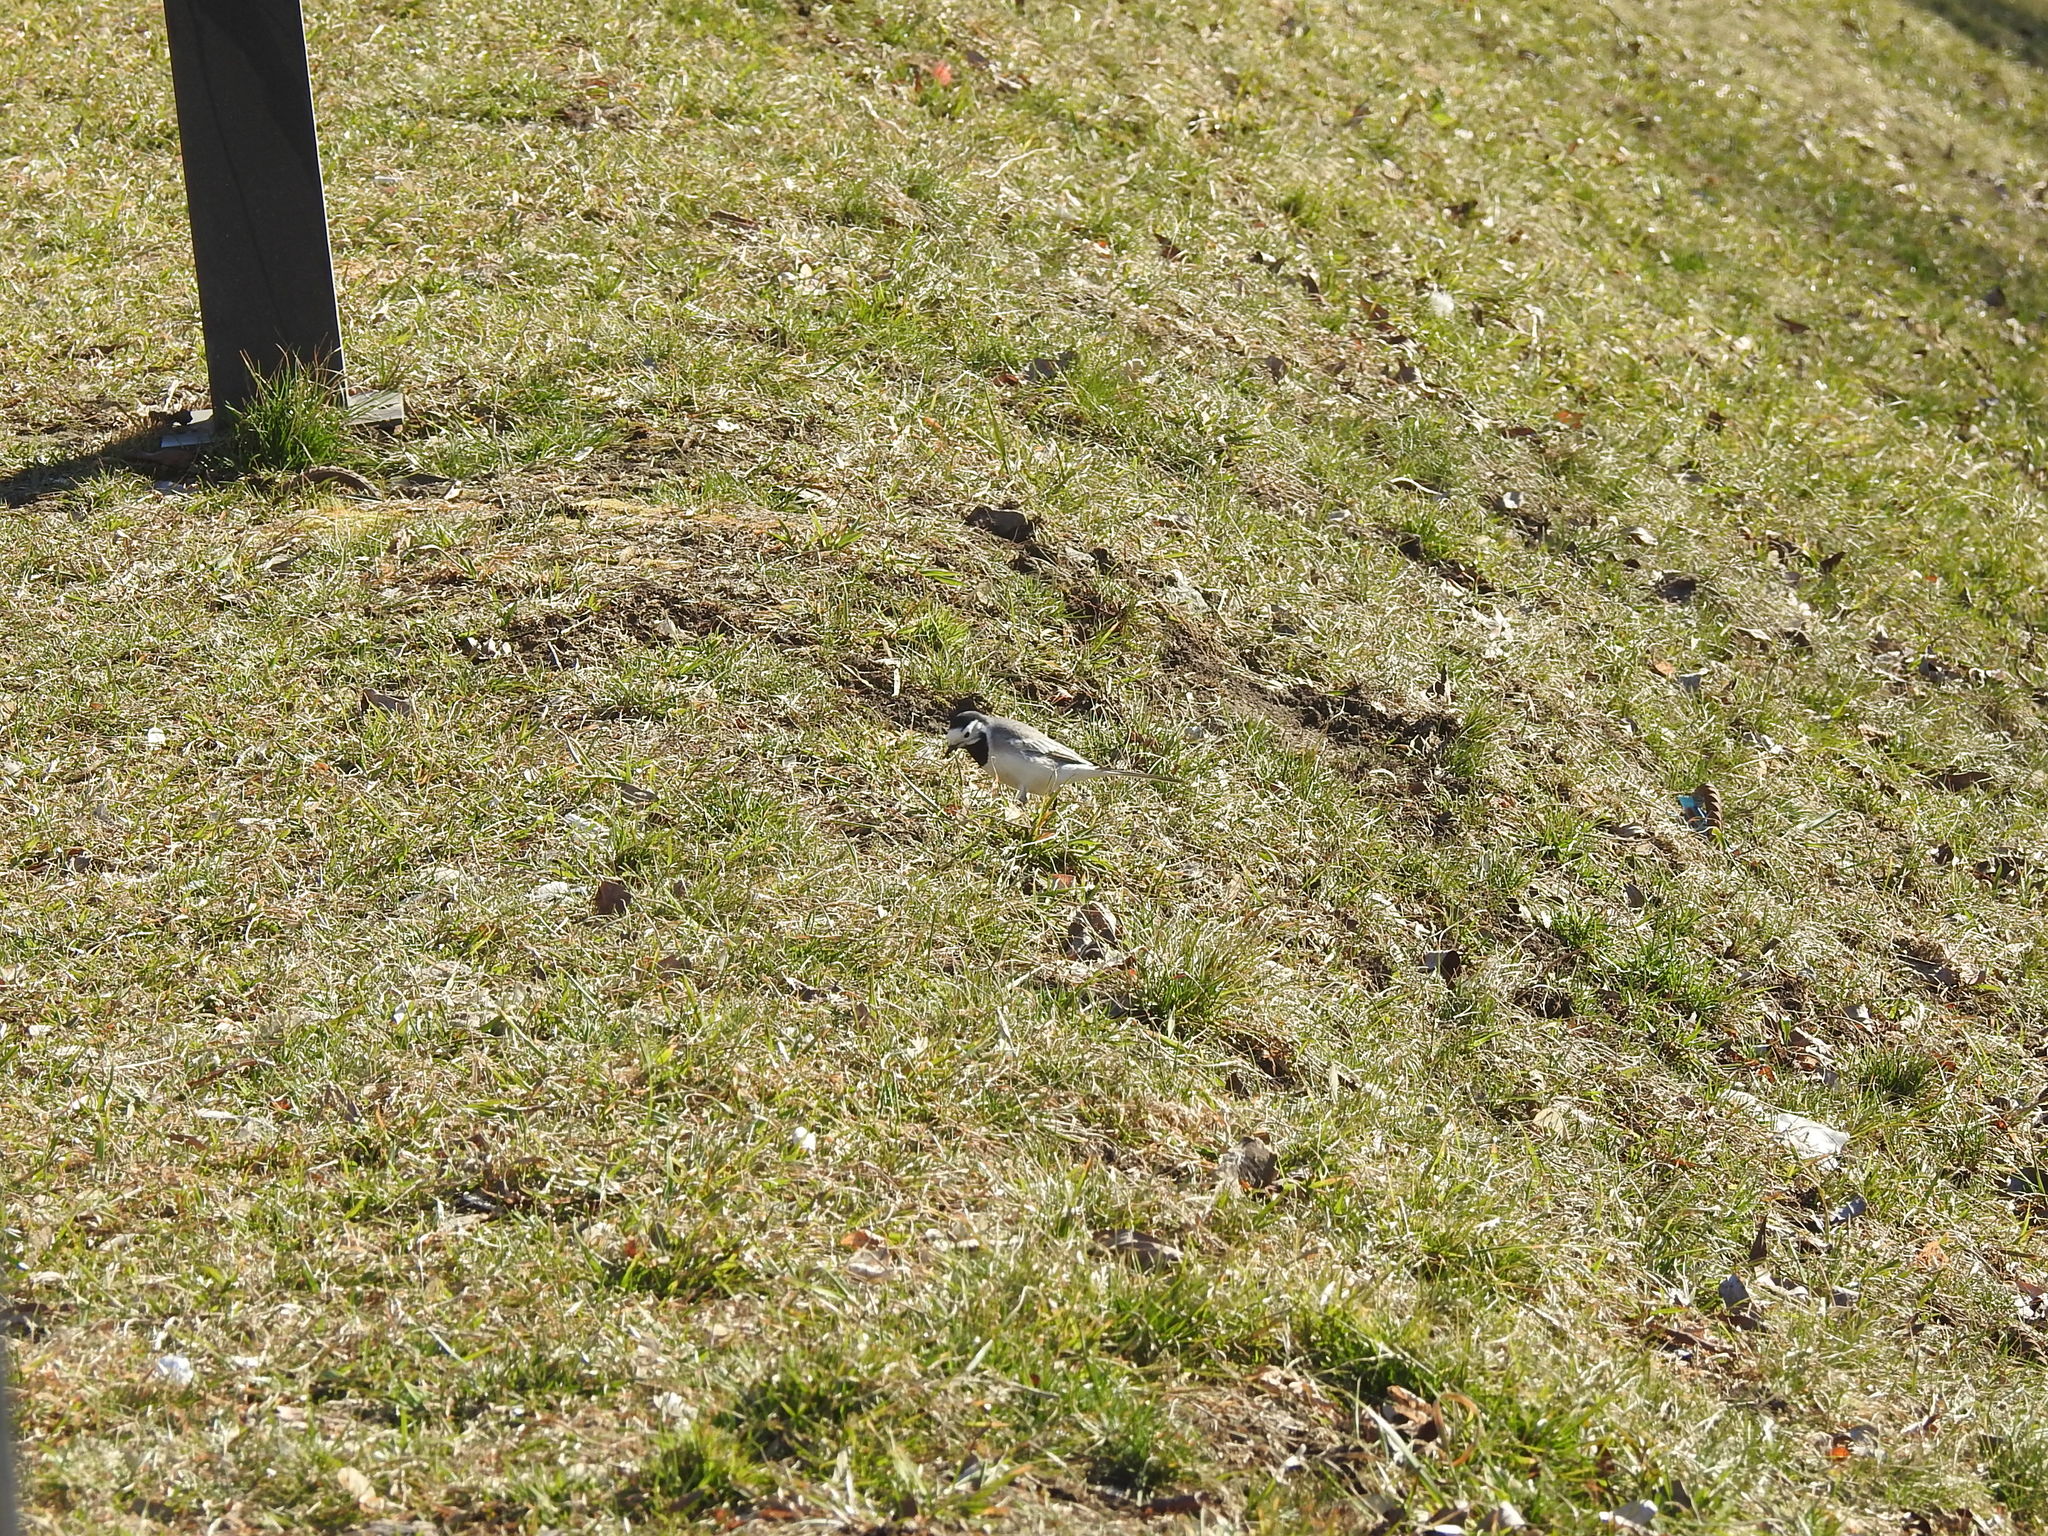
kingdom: Animalia
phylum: Chordata
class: Aves
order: Passeriformes
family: Motacillidae
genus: Motacilla
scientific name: Motacilla alba
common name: White wagtail
